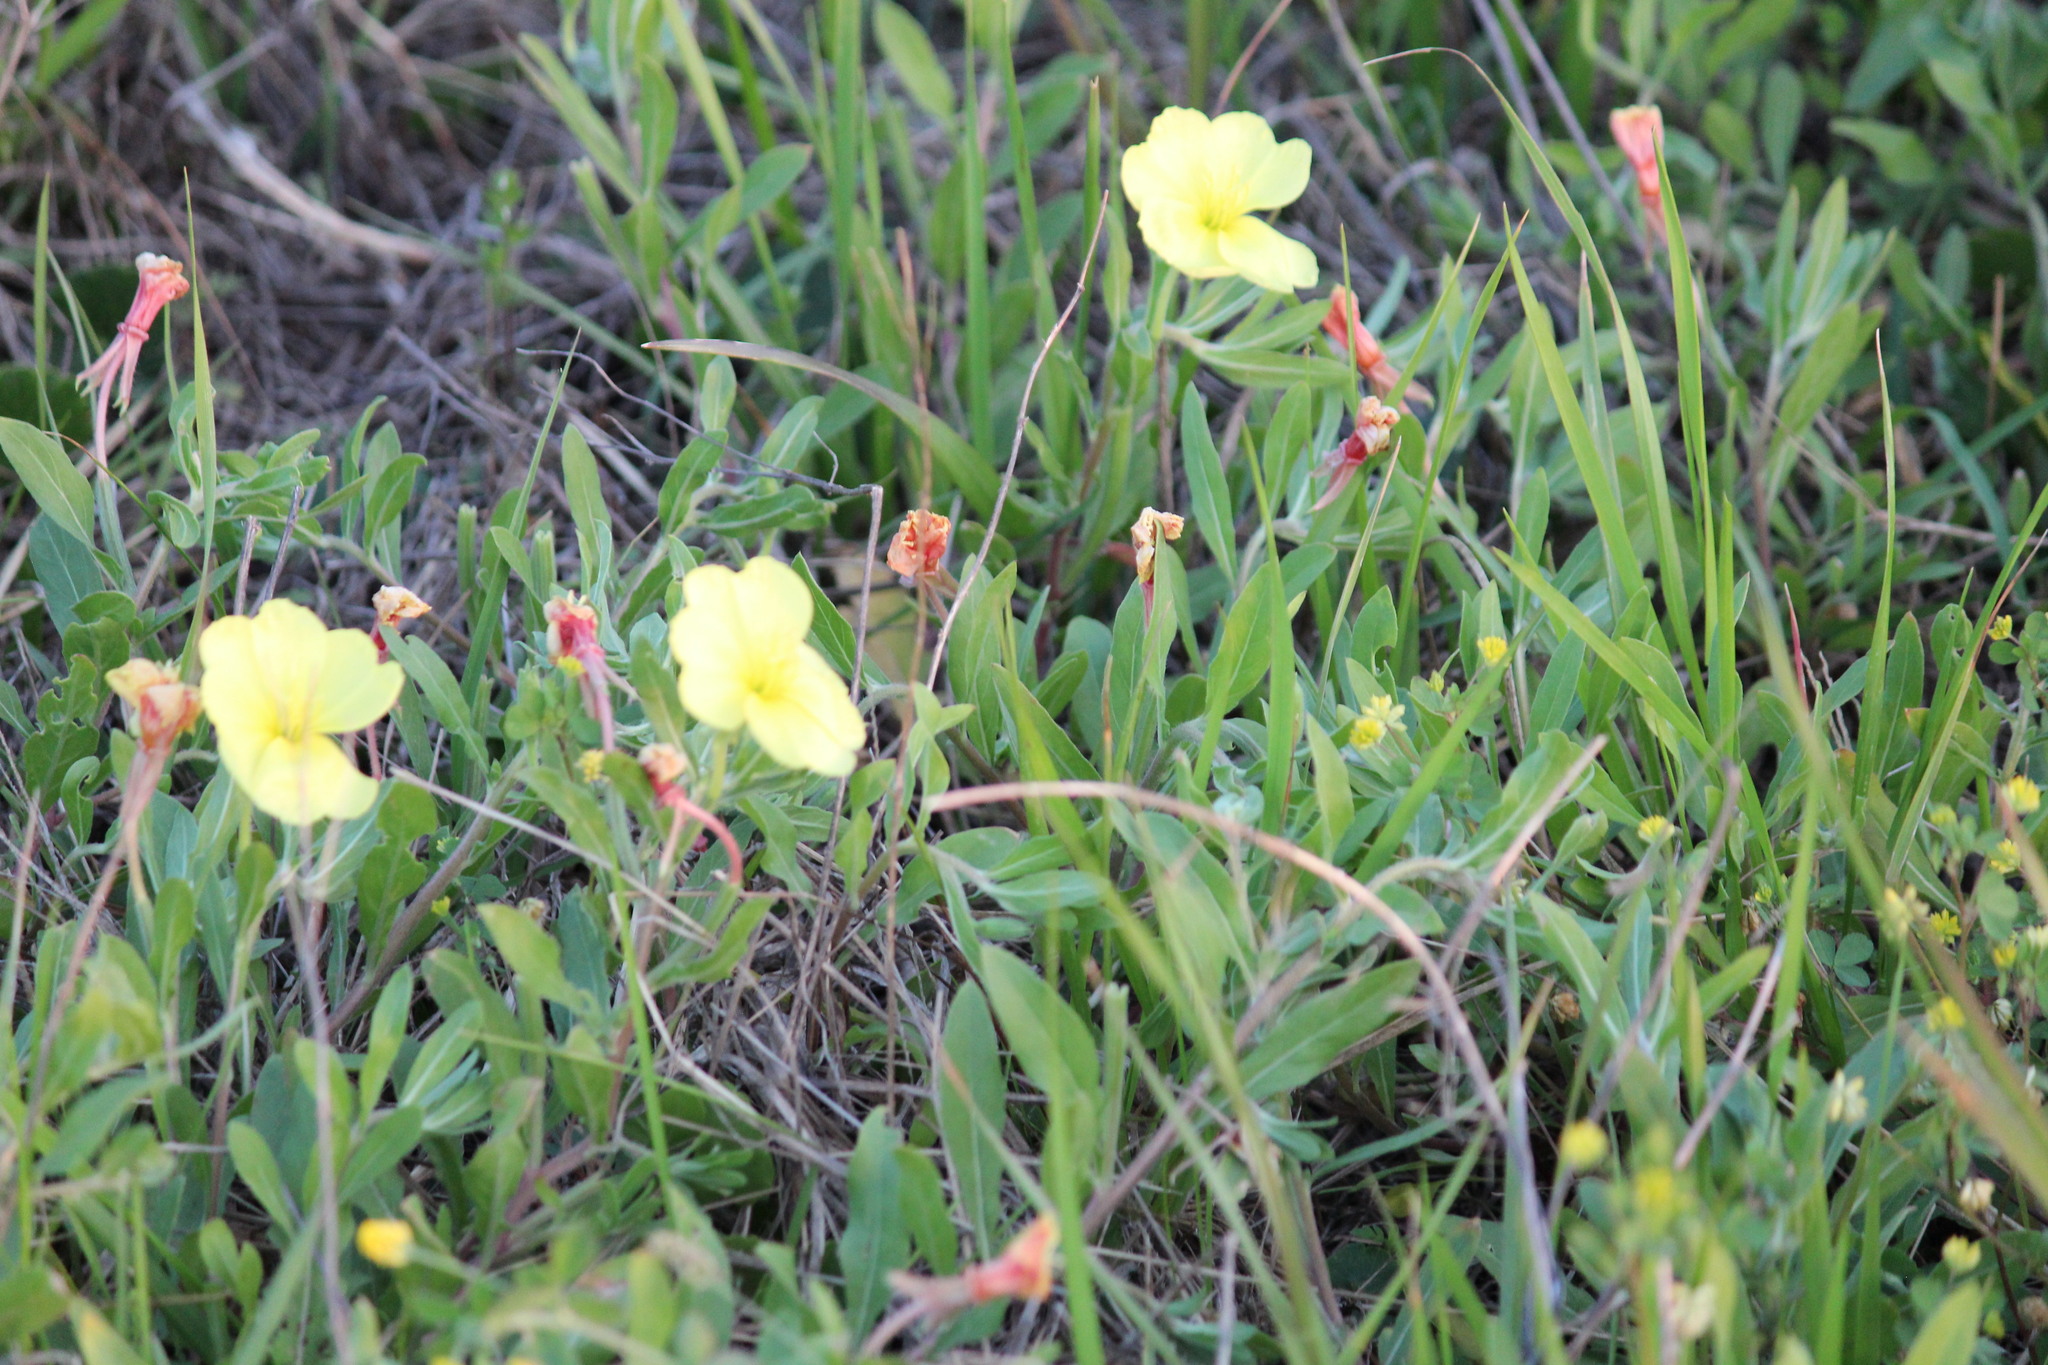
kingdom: Plantae
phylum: Tracheophyta
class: Magnoliopsida
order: Myrtales
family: Onagraceae
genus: Oenothera
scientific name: Oenothera humifusa
